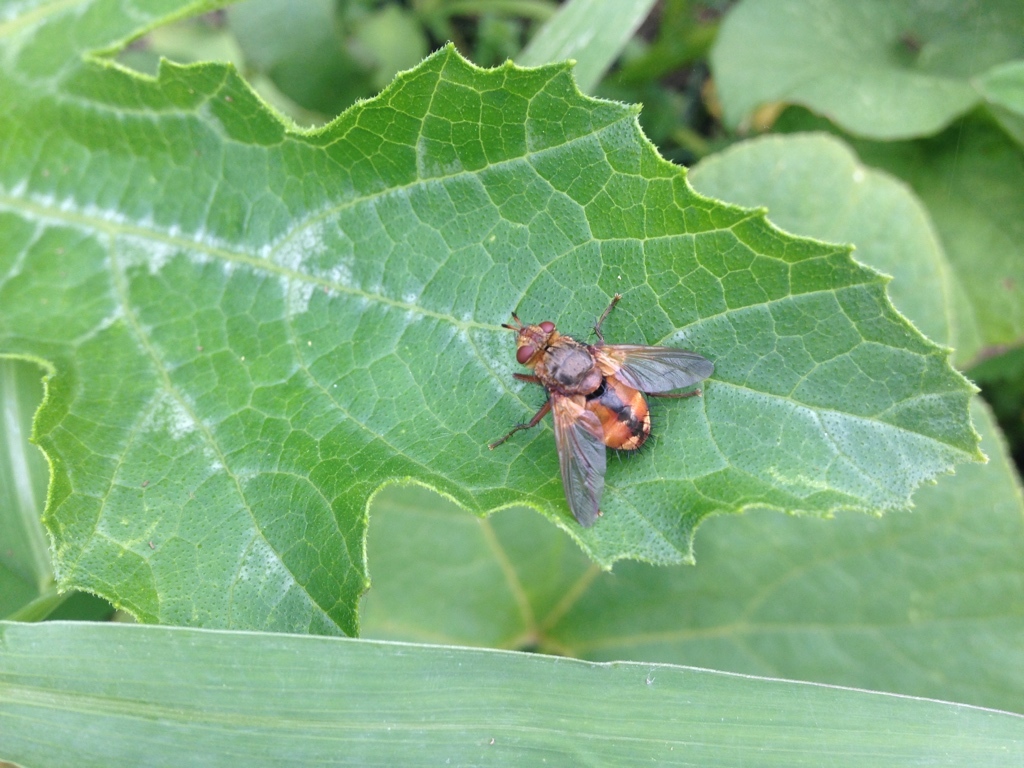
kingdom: Animalia
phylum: Arthropoda
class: Insecta
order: Diptera
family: Tachinidae
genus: Tachina
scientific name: Tachina fera
